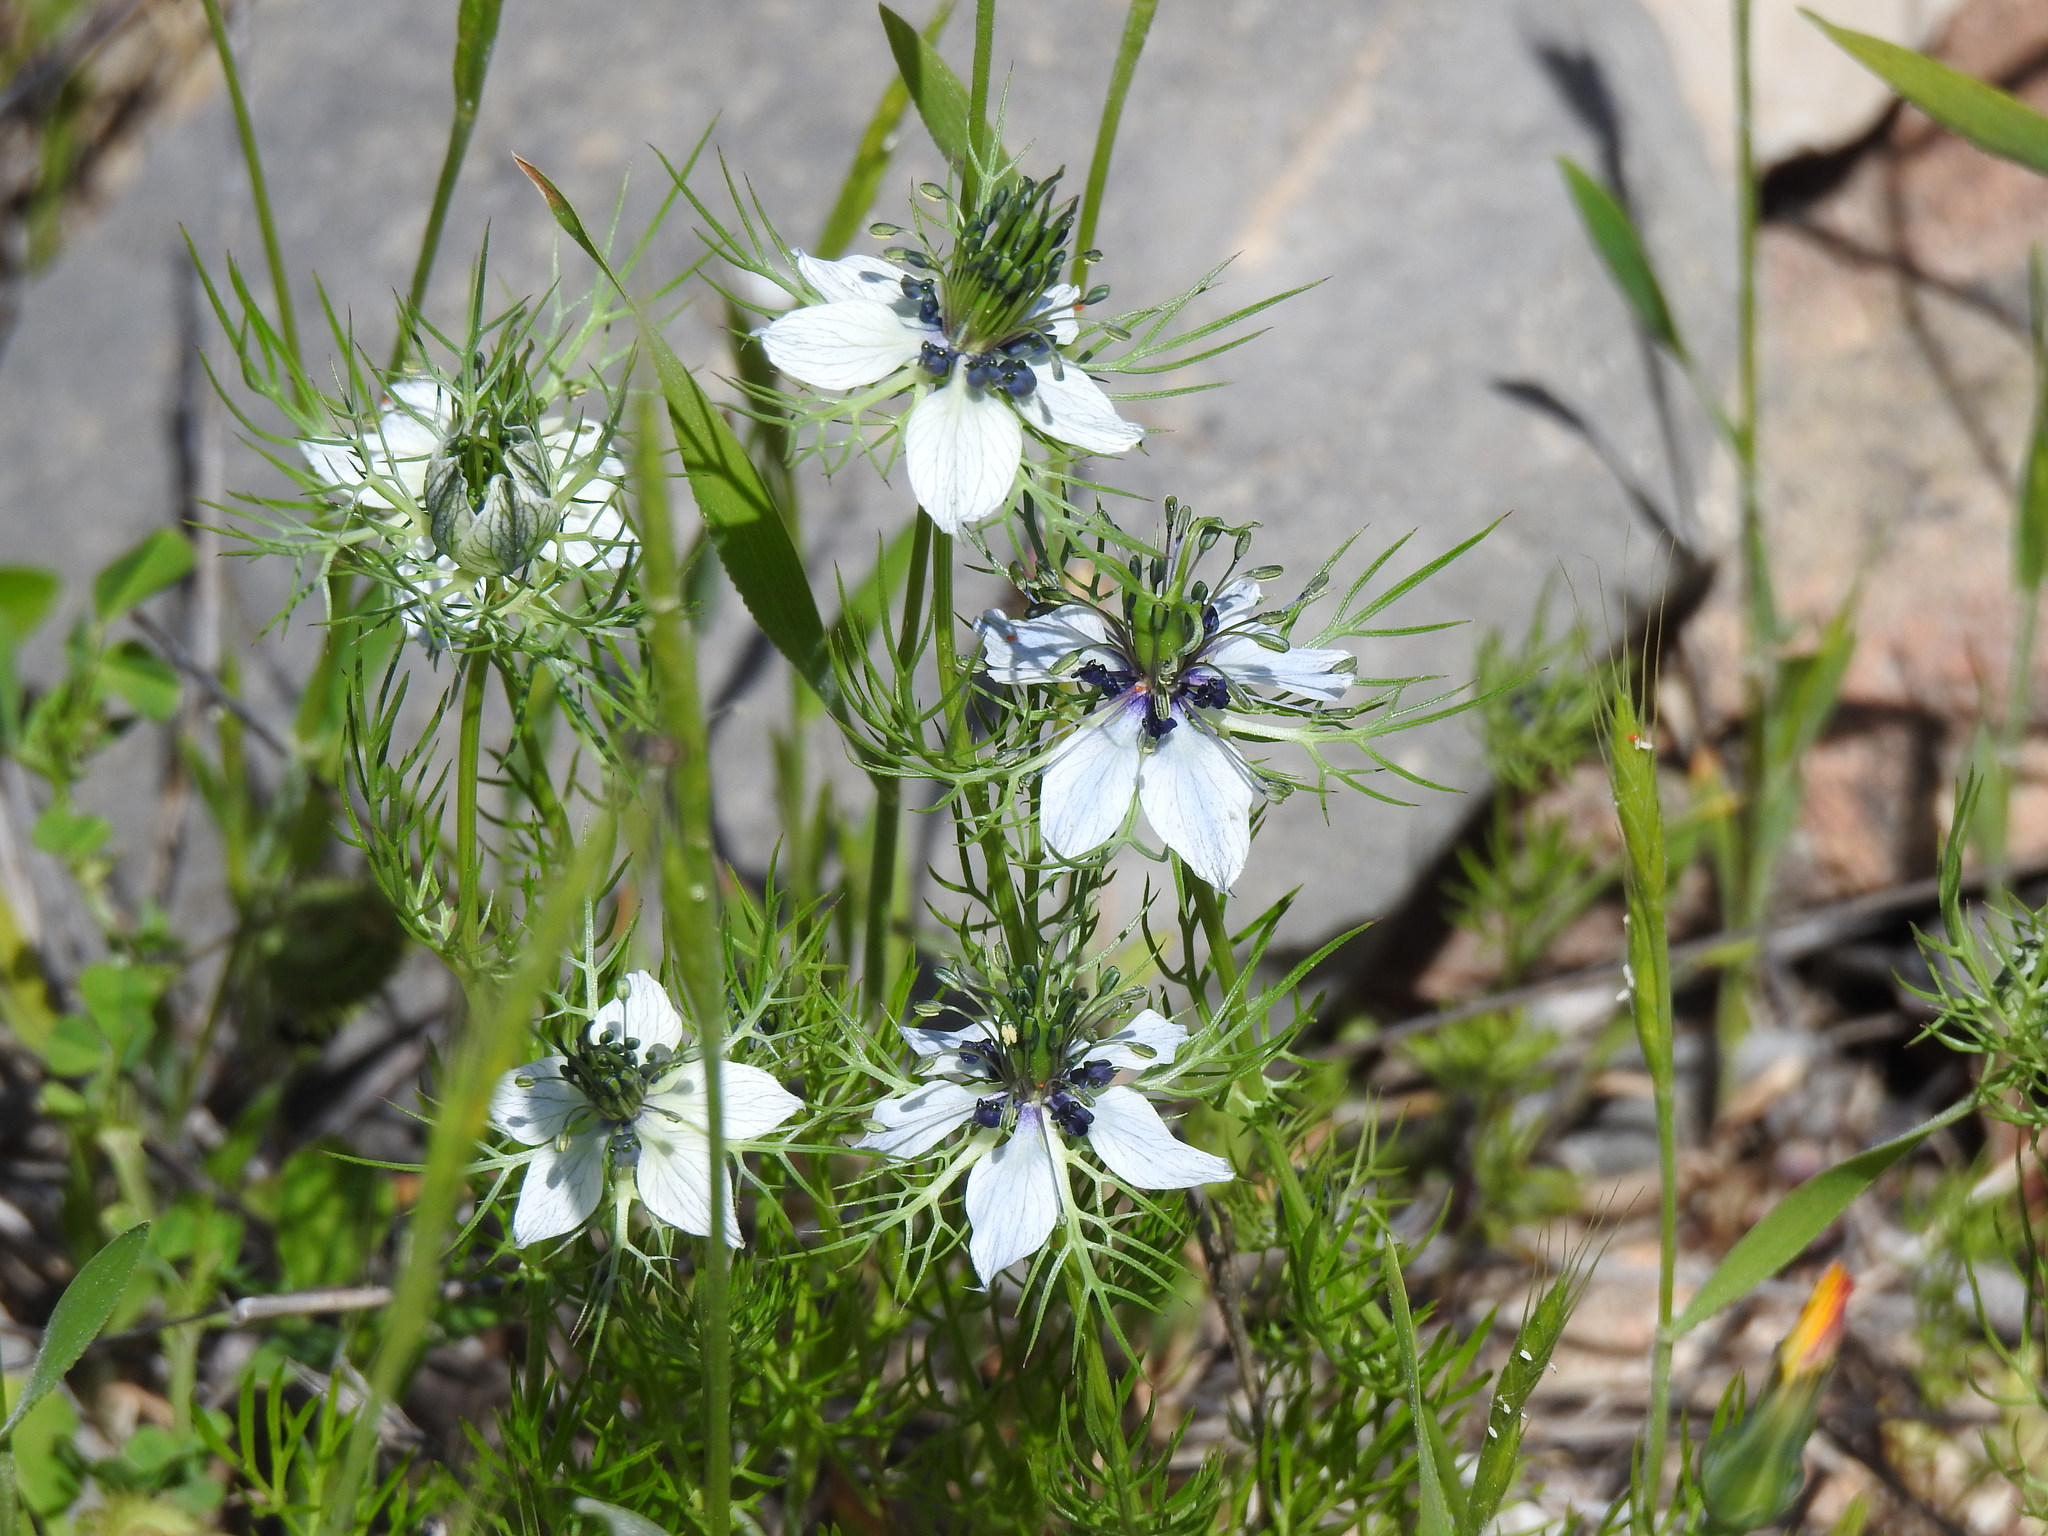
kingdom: Plantae
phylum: Tracheophyta
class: Magnoliopsida
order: Ranunculales
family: Ranunculaceae
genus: Nigella
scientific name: Nigella damascena
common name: Love-in-a-mist
